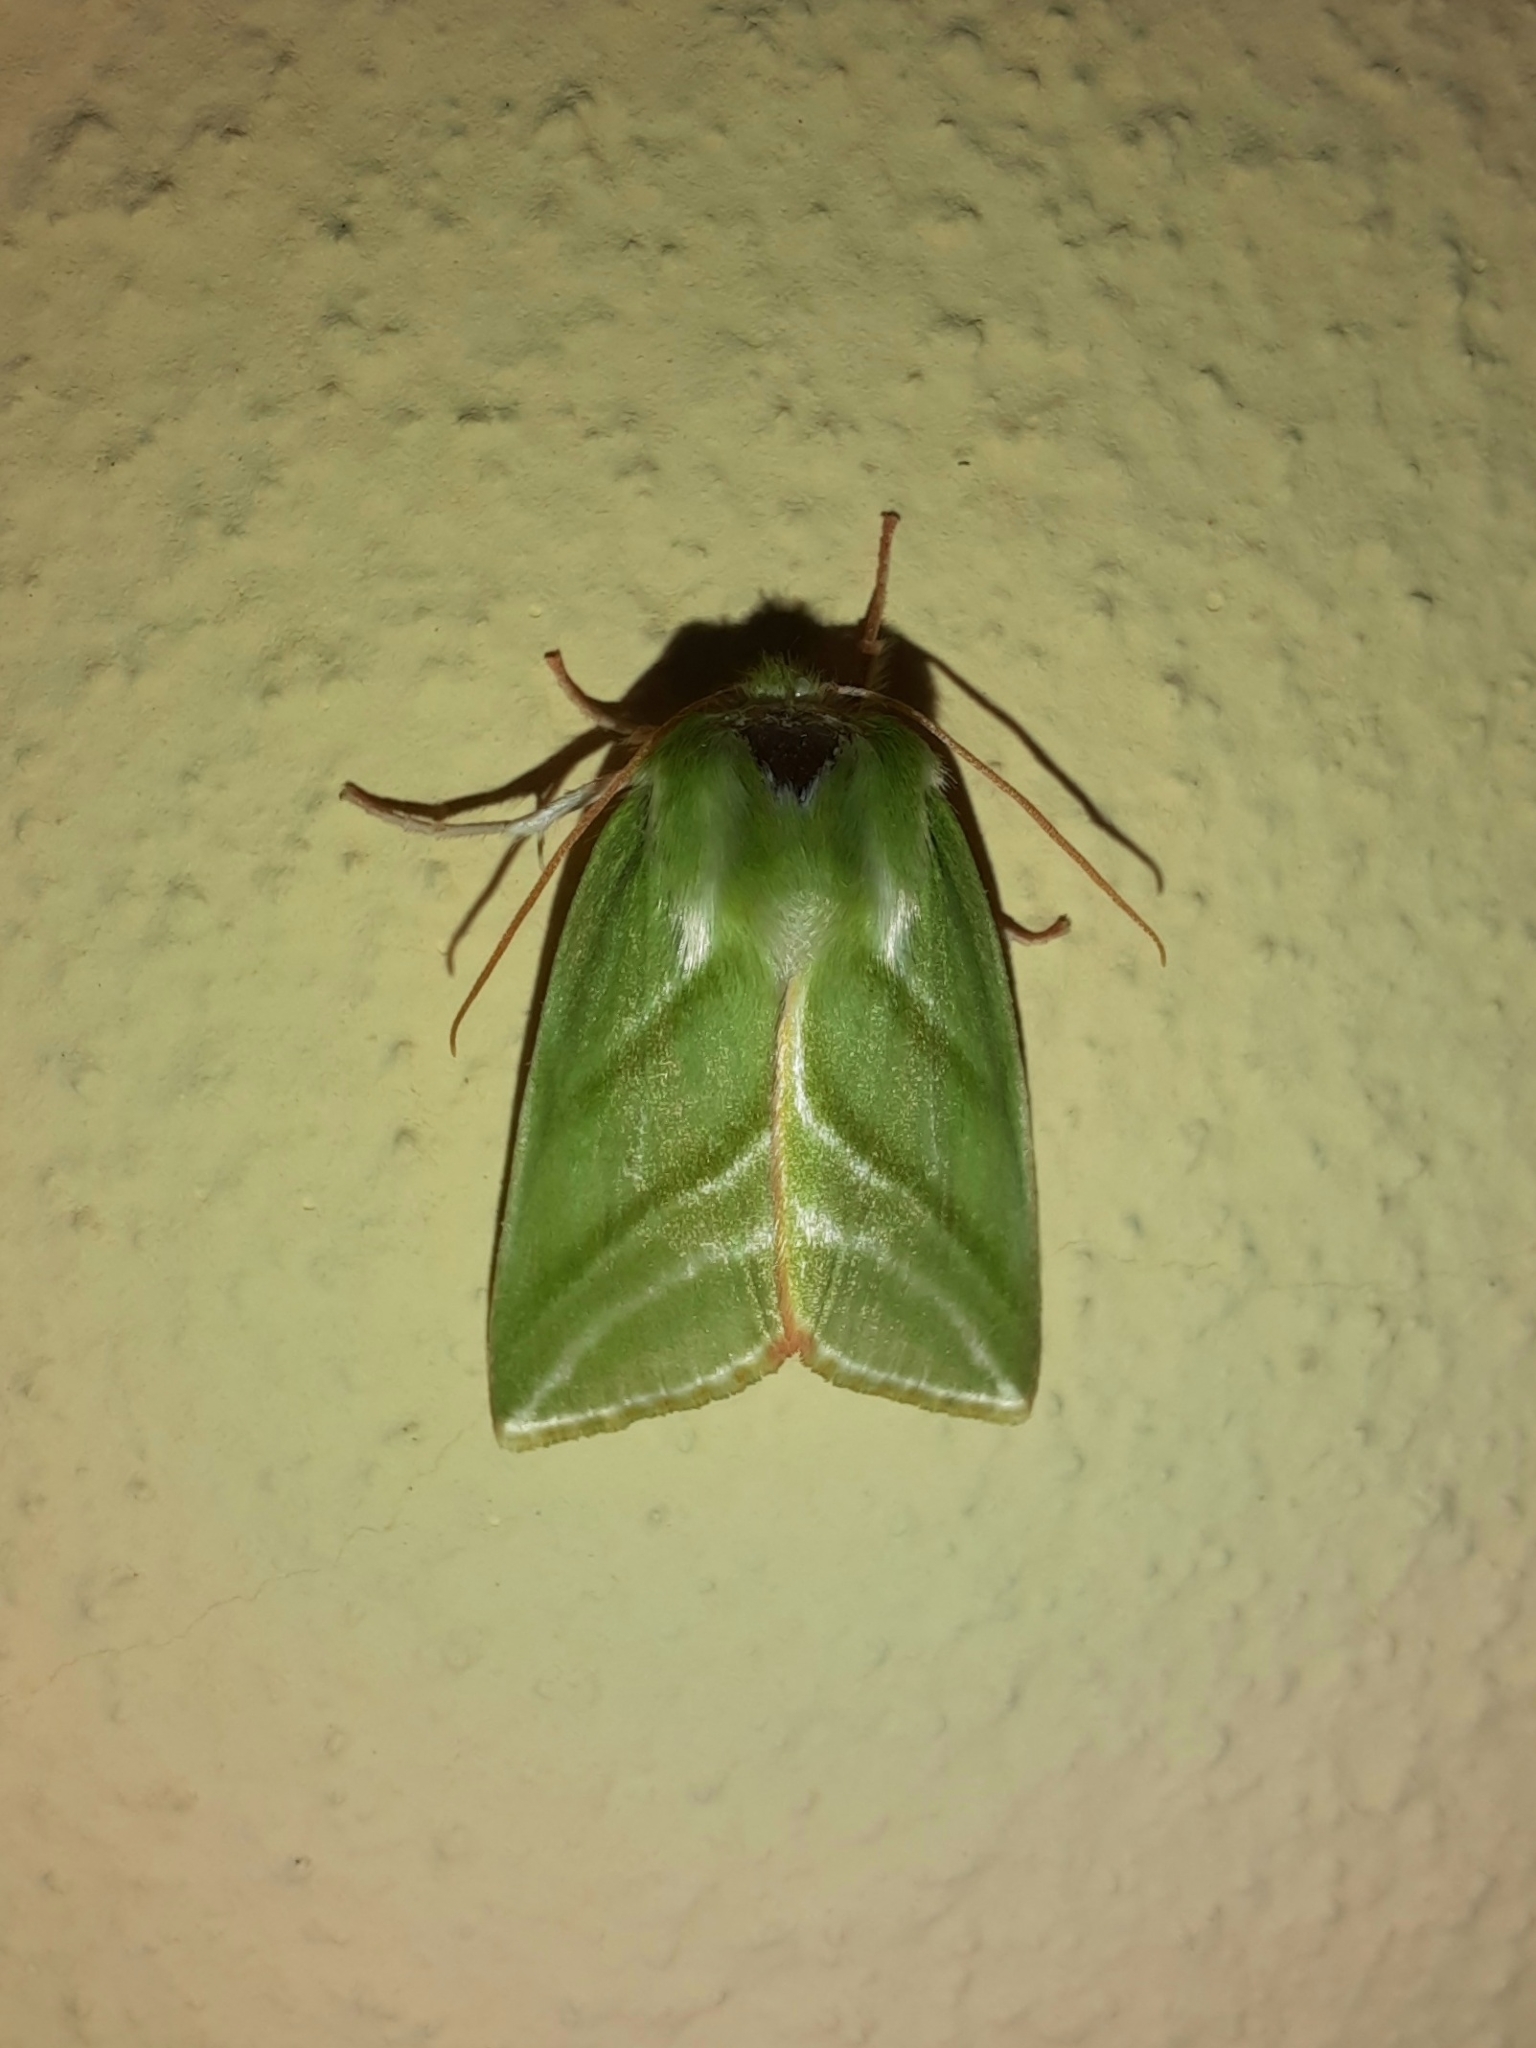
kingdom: Animalia
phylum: Arthropoda
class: Insecta
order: Lepidoptera
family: Nolidae
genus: Pseudoips
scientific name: Pseudoips prasinana
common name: Green silver-lines
